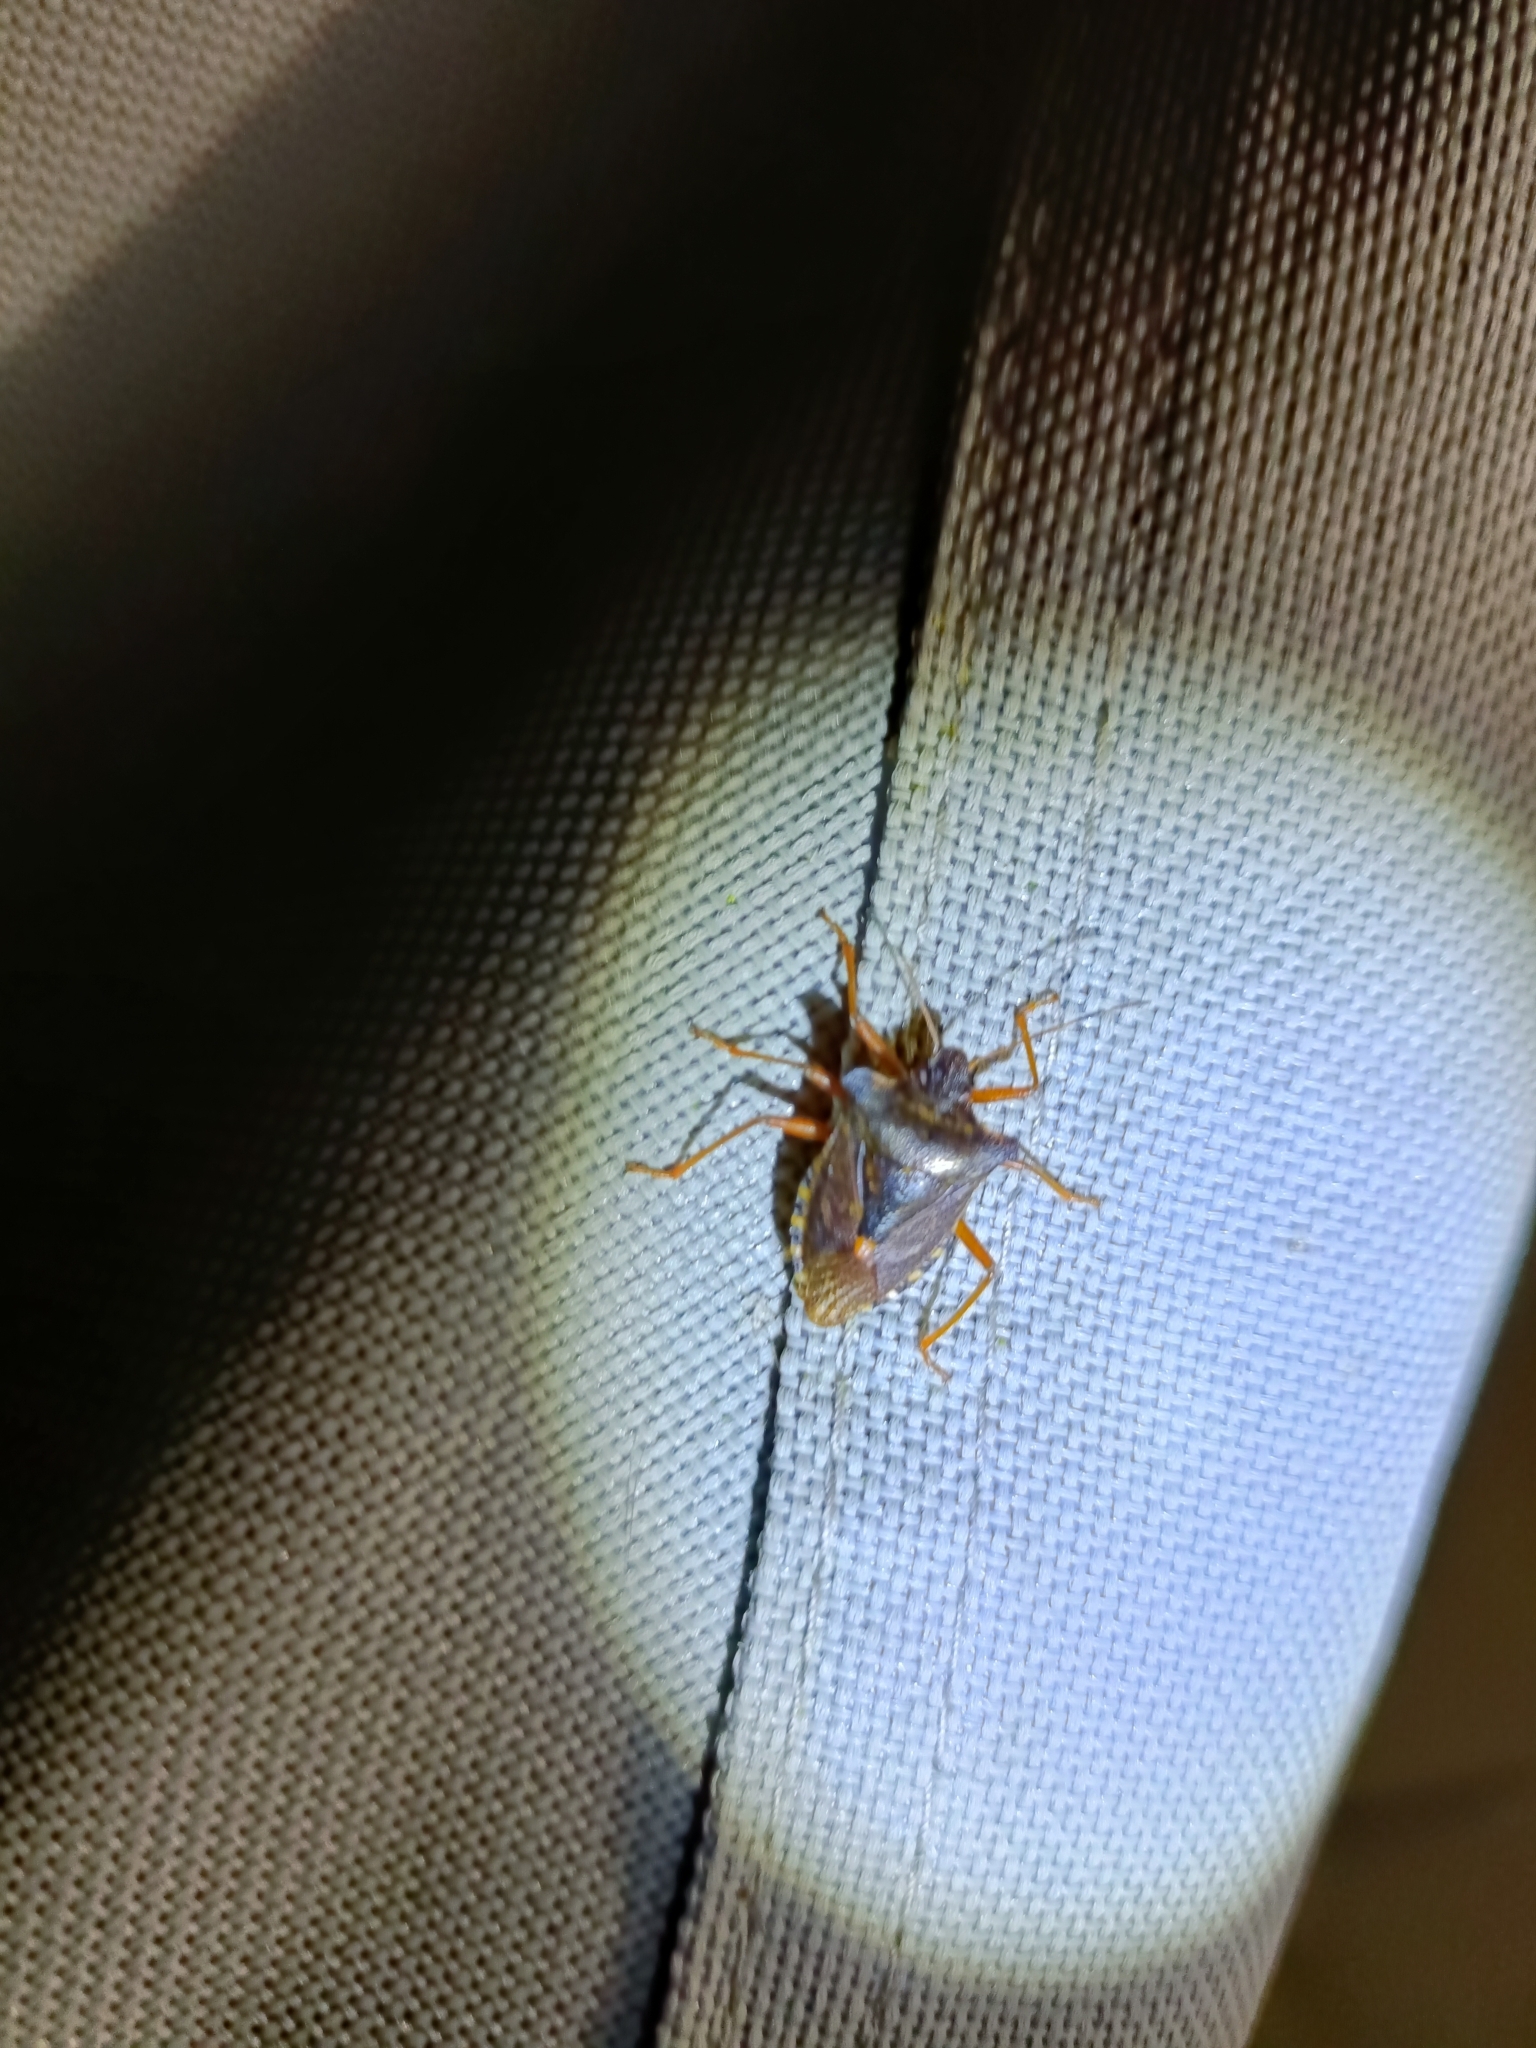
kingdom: Animalia
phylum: Arthropoda
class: Insecta
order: Hemiptera
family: Pentatomidae
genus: Pentatoma
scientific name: Pentatoma rufipes
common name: Forest bug
